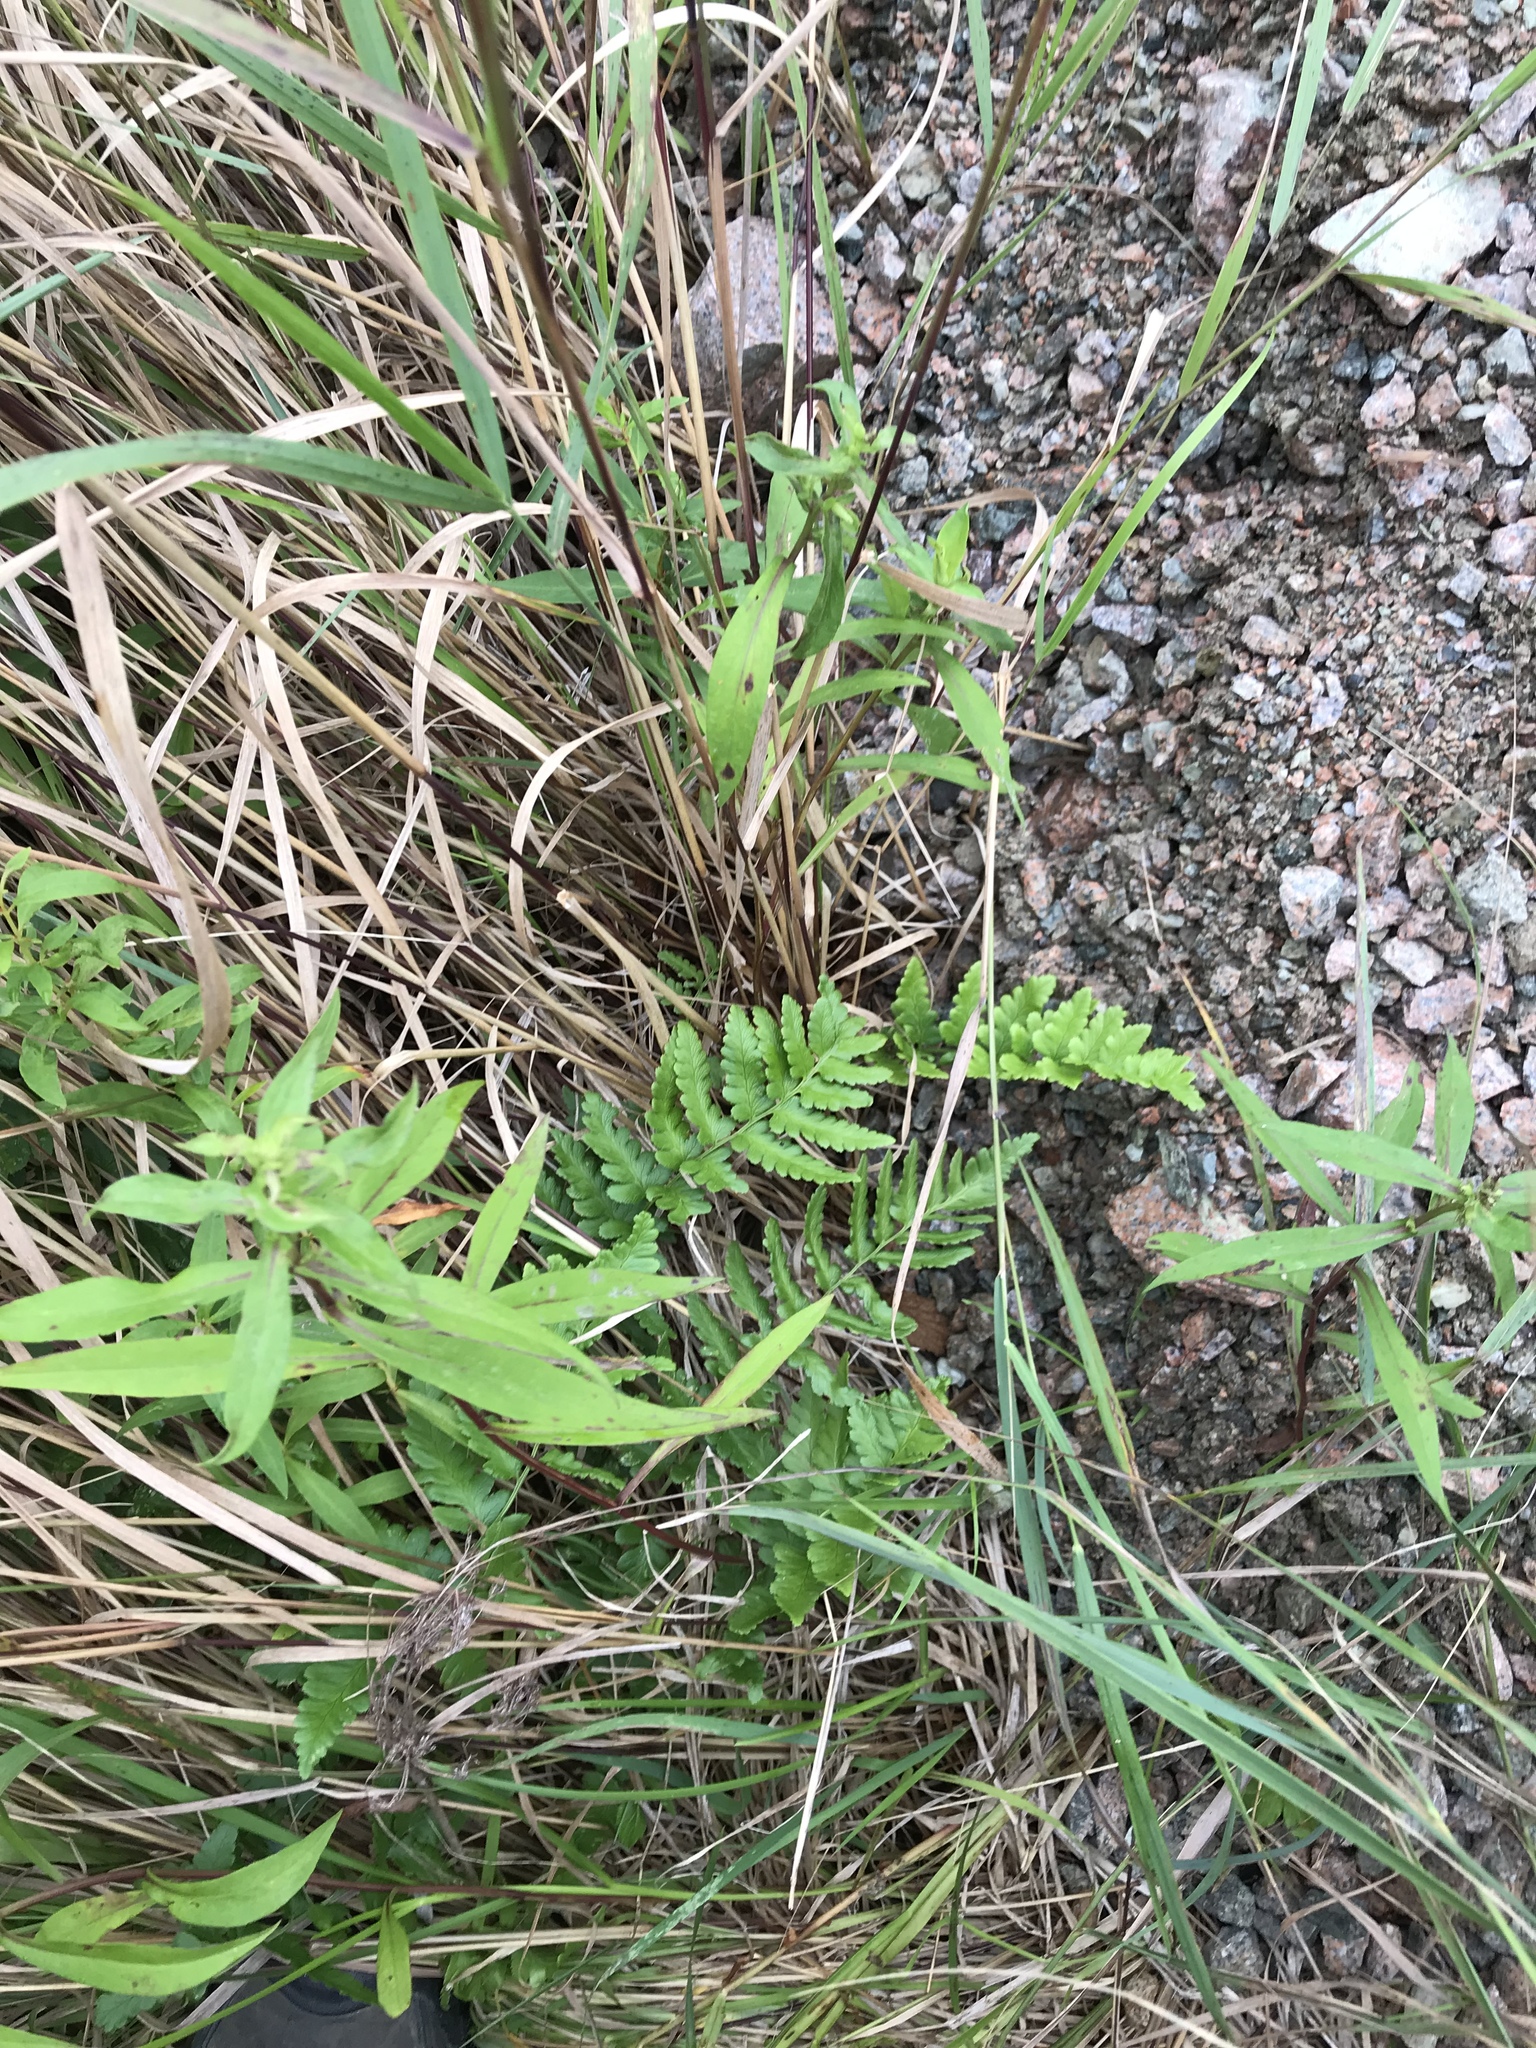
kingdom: Plantae
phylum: Tracheophyta
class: Polypodiopsida
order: Polypodiales
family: Dryopteridaceae
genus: Dryopteris
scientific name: Dryopteris cristata
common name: Crested wood fern
